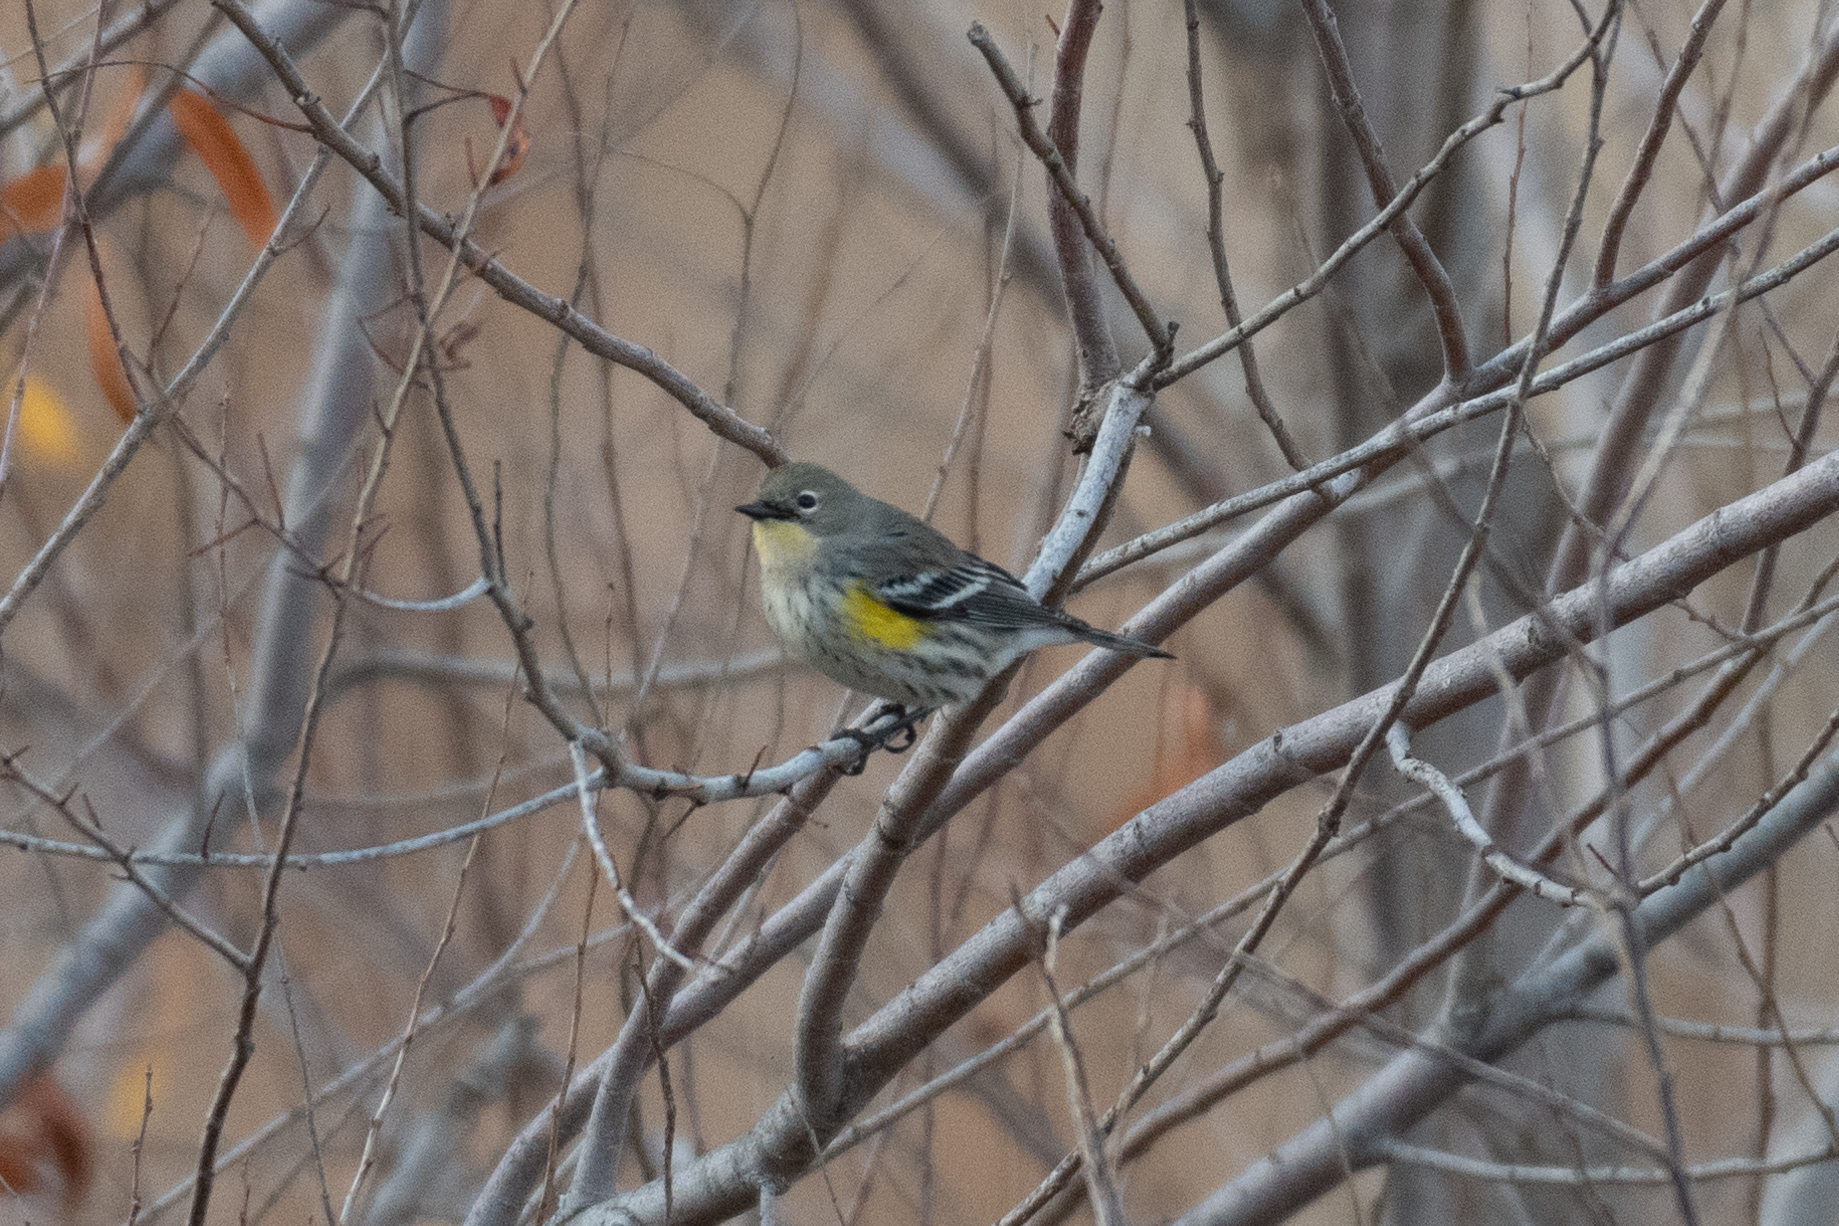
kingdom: Animalia
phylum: Chordata
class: Aves
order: Passeriformes
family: Parulidae
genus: Setophaga
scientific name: Setophaga coronata
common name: Myrtle warbler
